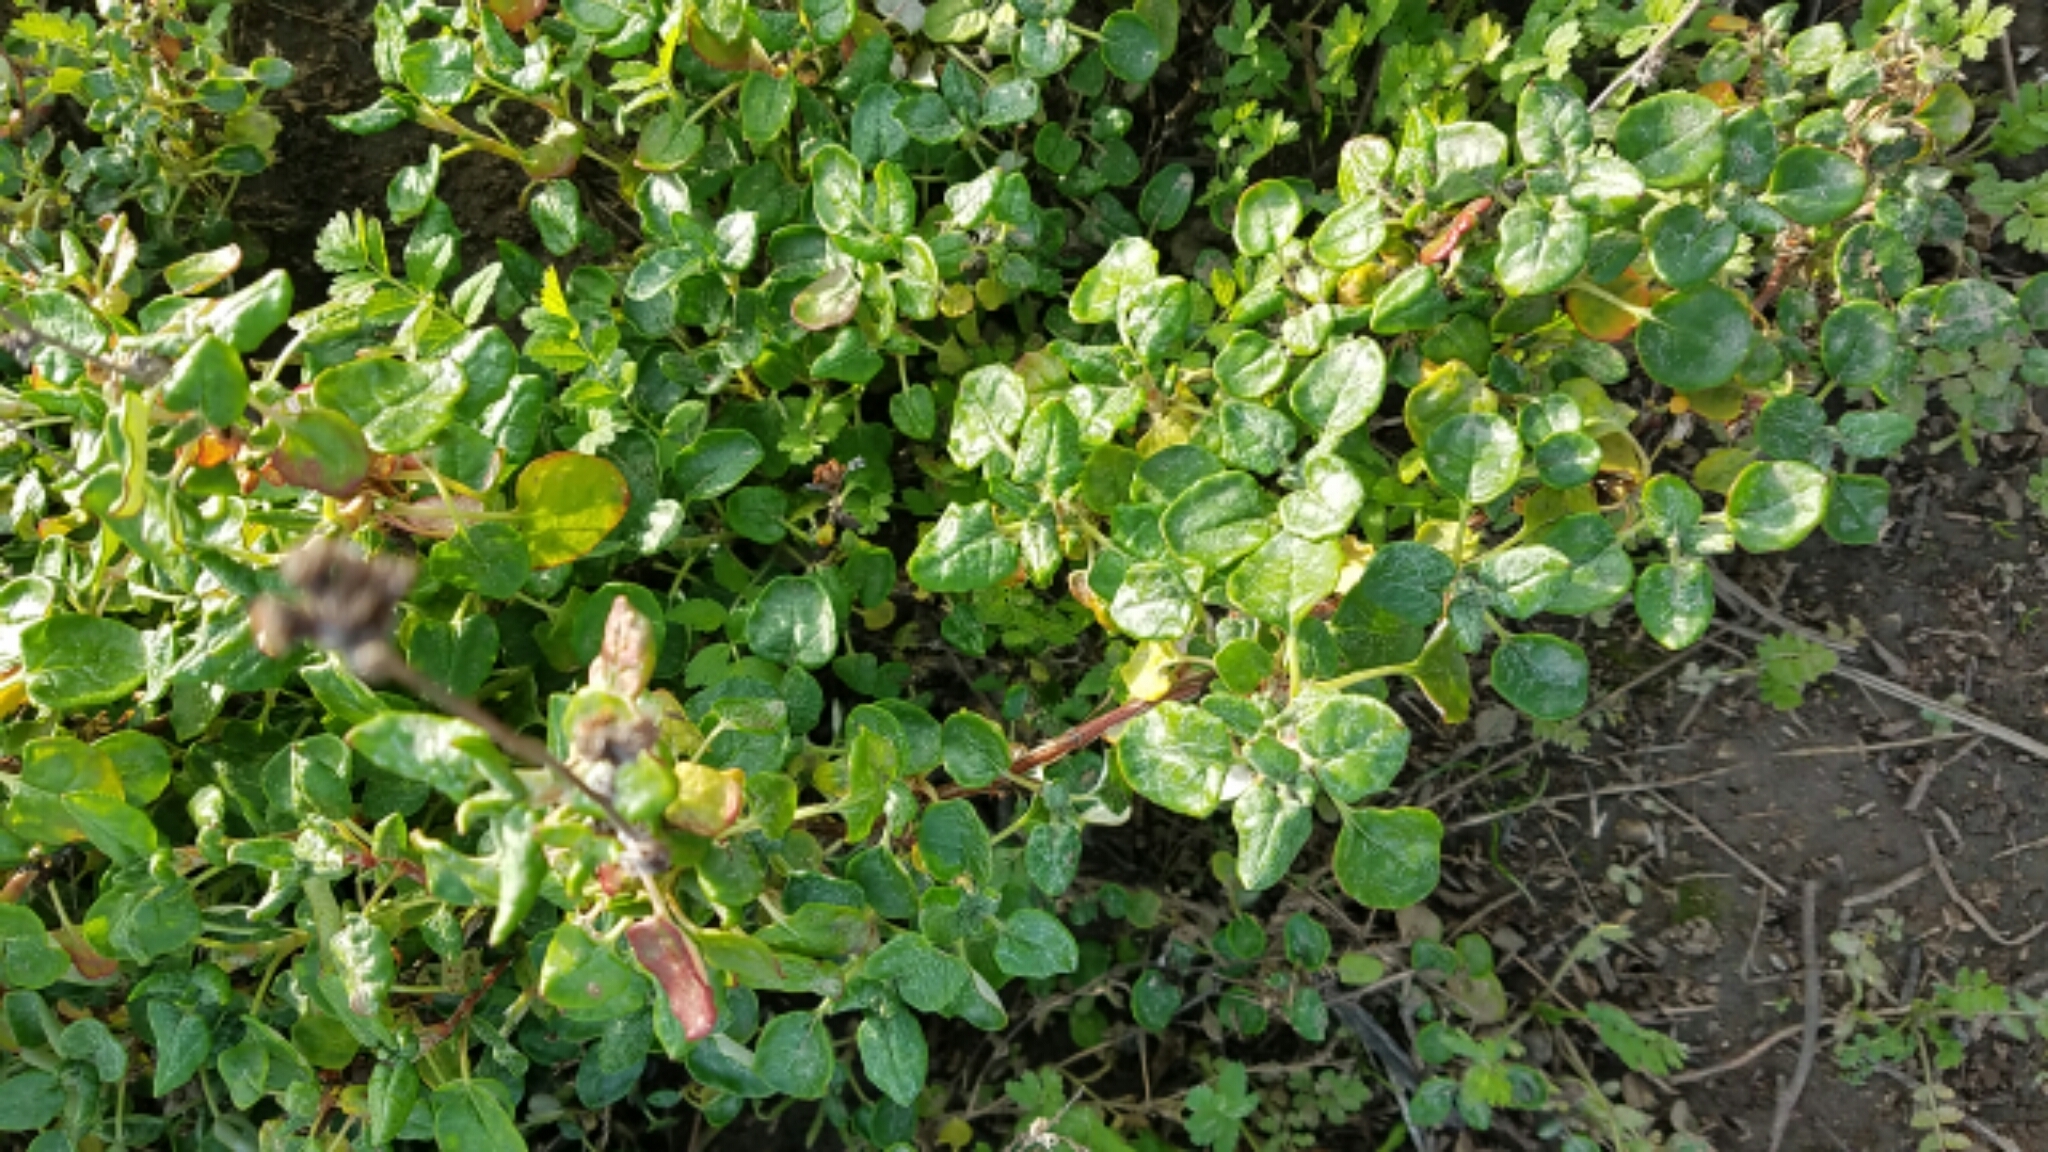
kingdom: Plantae
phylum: Tracheophyta
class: Magnoliopsida
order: Caryophyllales
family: Polygonaceae
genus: Eriogonum
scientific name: Eriogonum parvifolium
